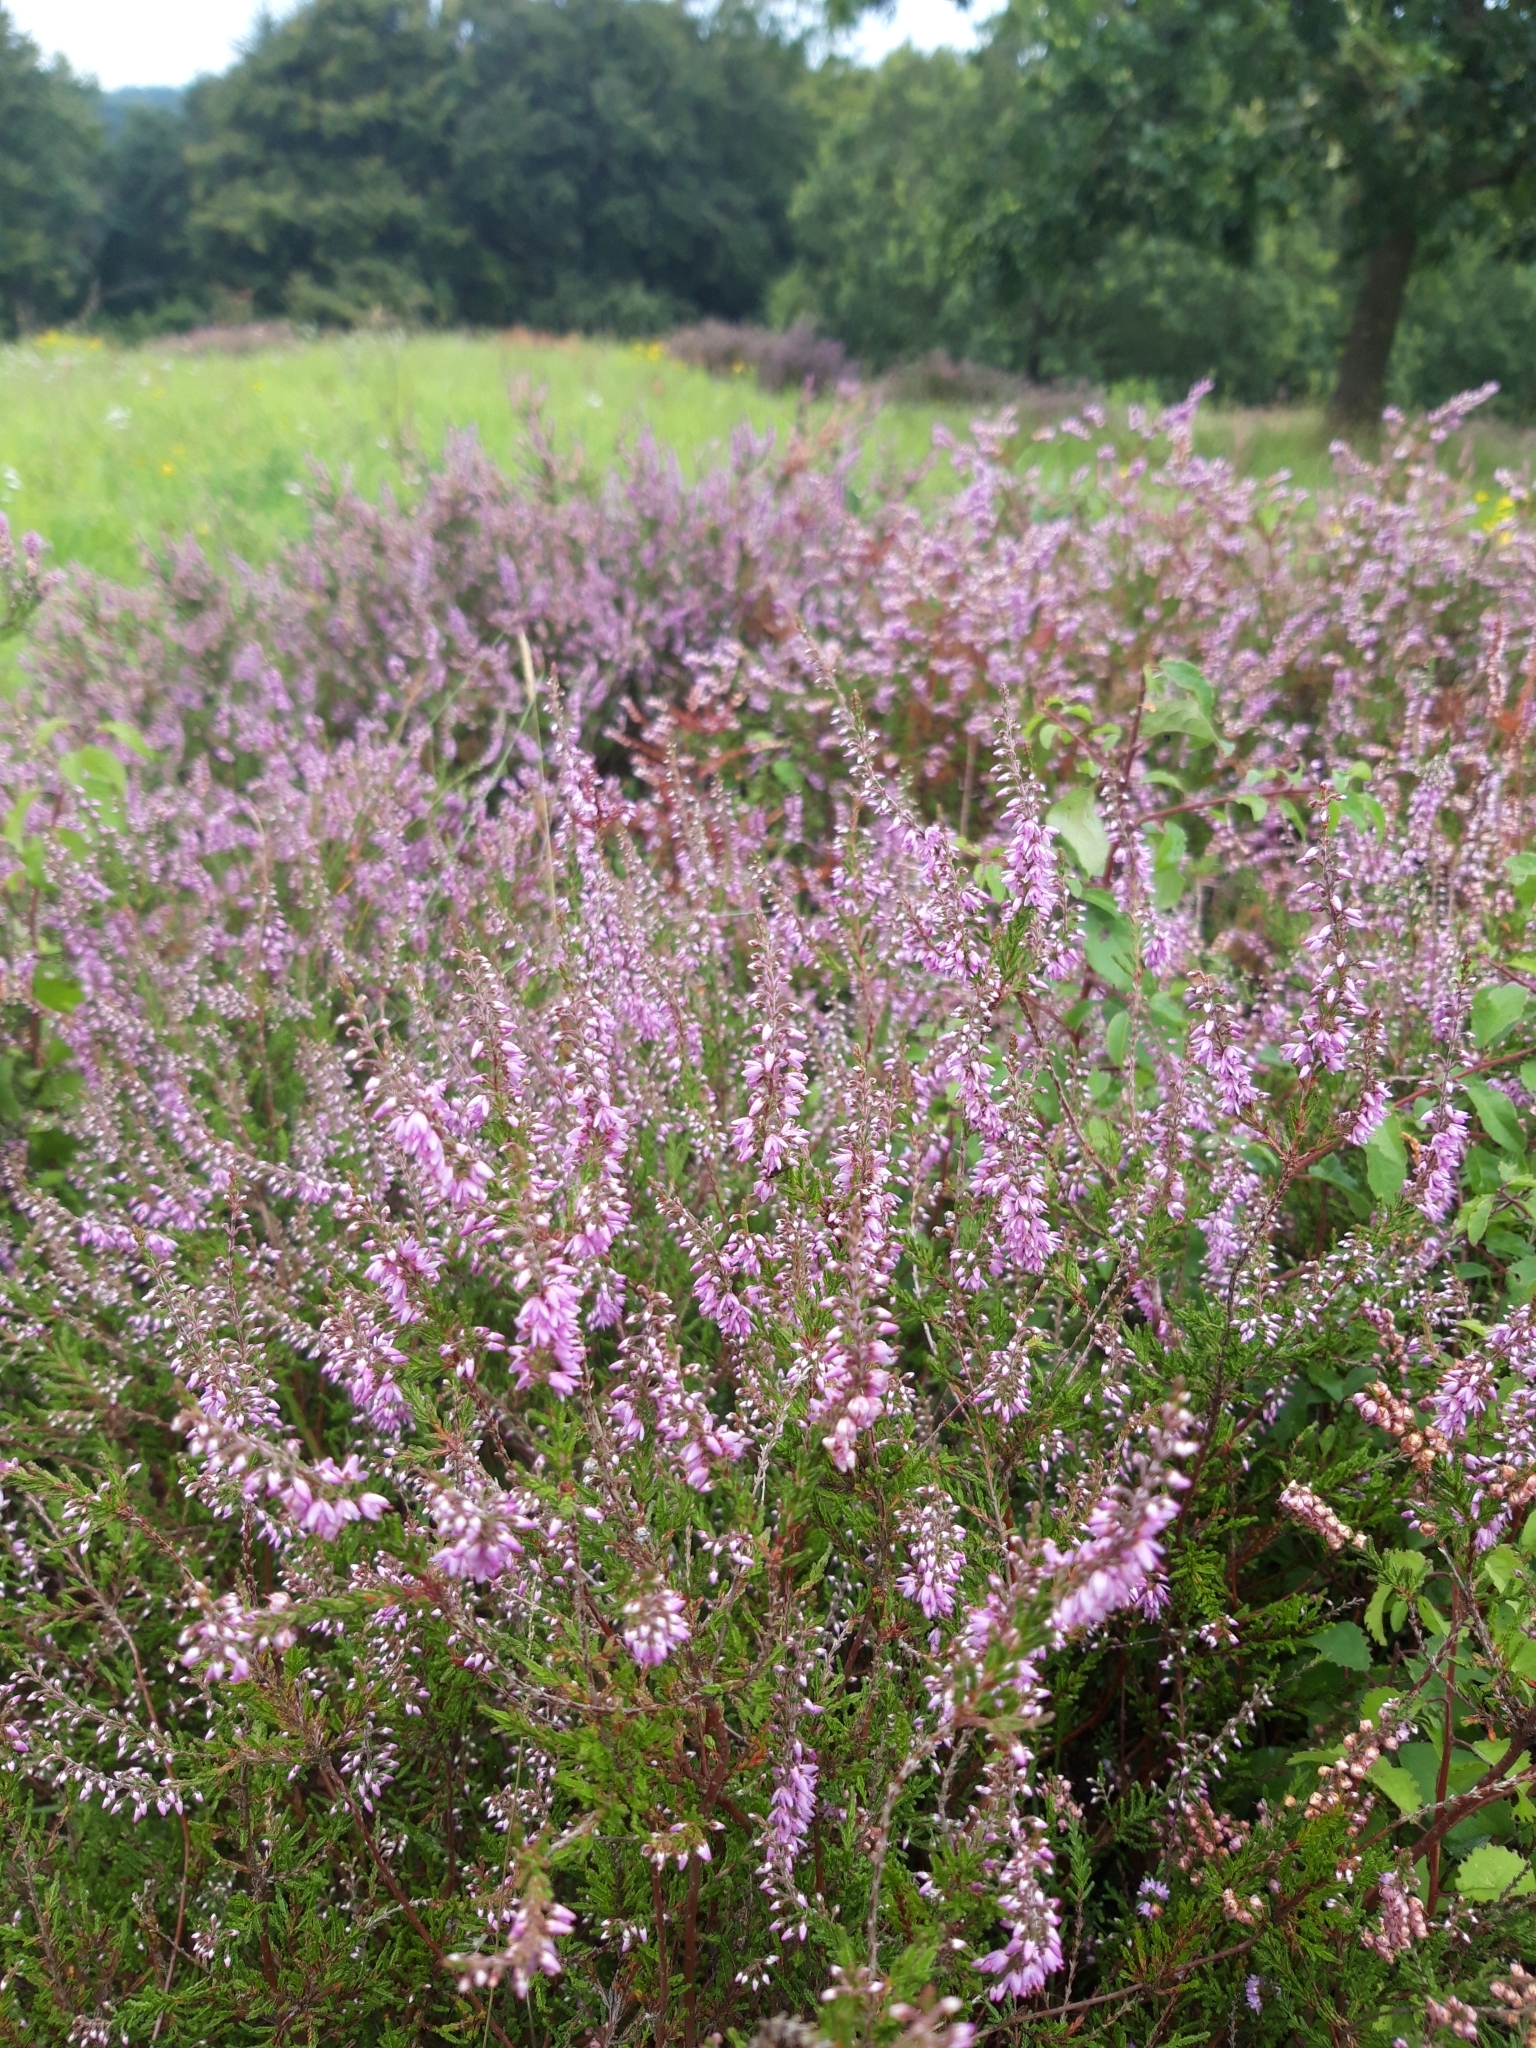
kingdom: Plantae
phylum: Tracheophyta
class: Magnoliopsida
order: Ericales
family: Ericaceae
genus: Calluna
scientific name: Calluna vulgaris
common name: Heather
